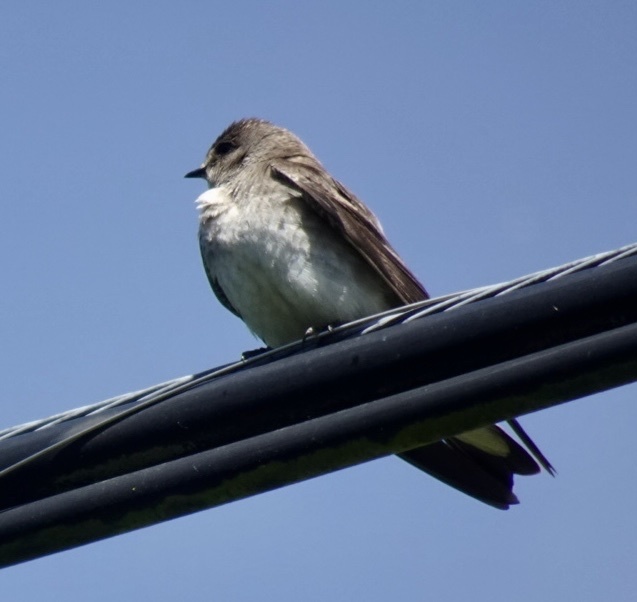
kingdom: Animalia
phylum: Chordata
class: Aves
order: Passeriformes
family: Hirundinidae
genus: Stelgidopteryx
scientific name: Stelgidopteryx serripennis
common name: Northern rough-winged swallow
